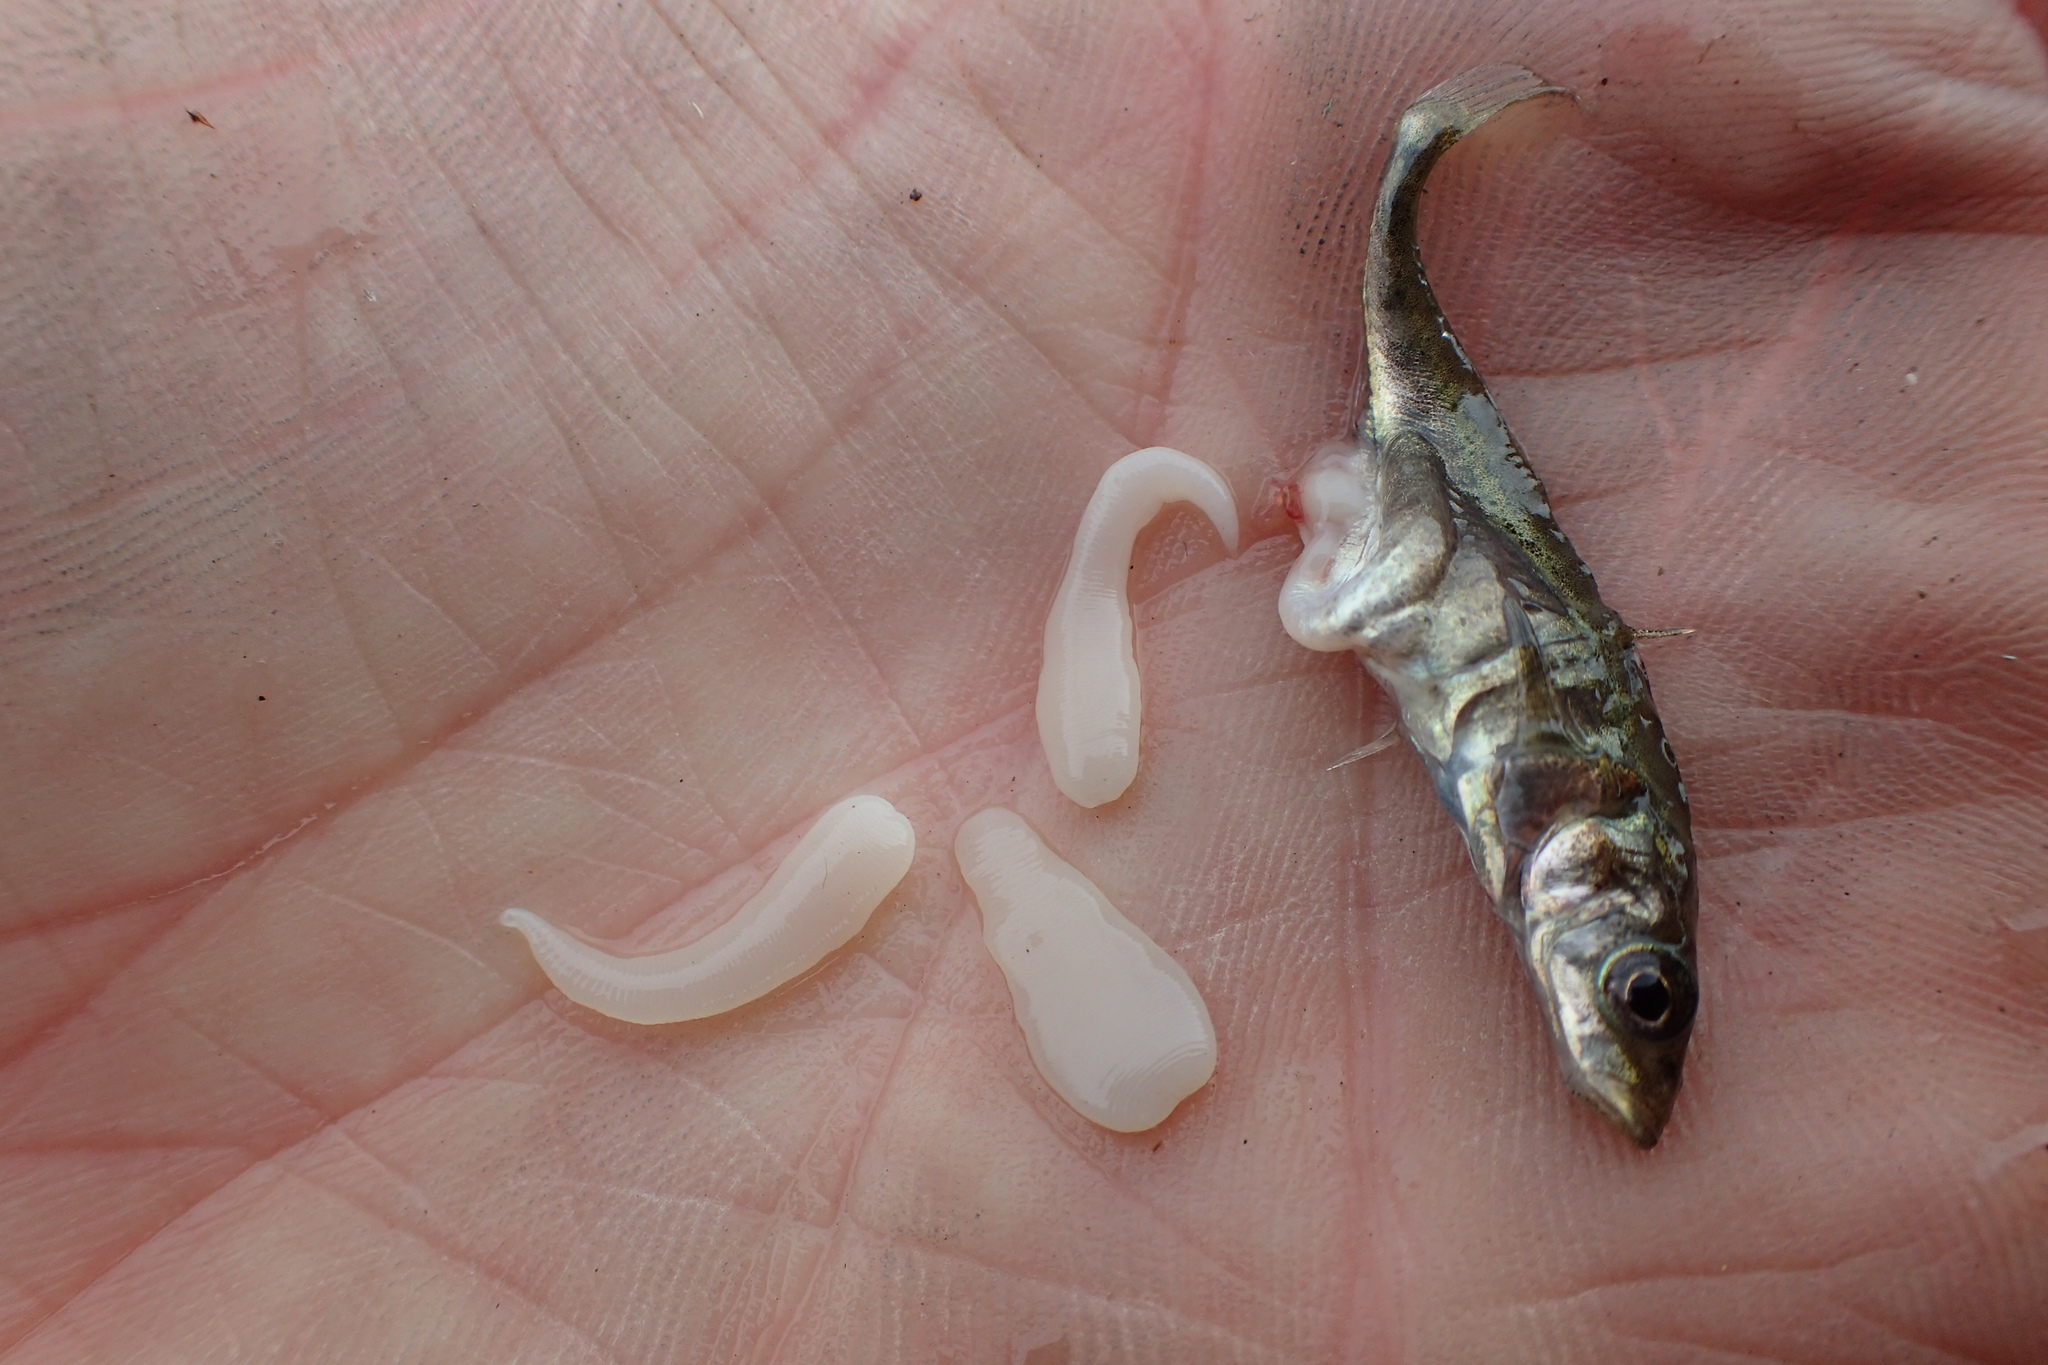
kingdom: Animalia
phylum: Platyhelminthes
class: Cestoda
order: Diphyllobothriidea
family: Diphyllobothriidae
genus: Schistocephalus
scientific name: Schistocephalus solidus
